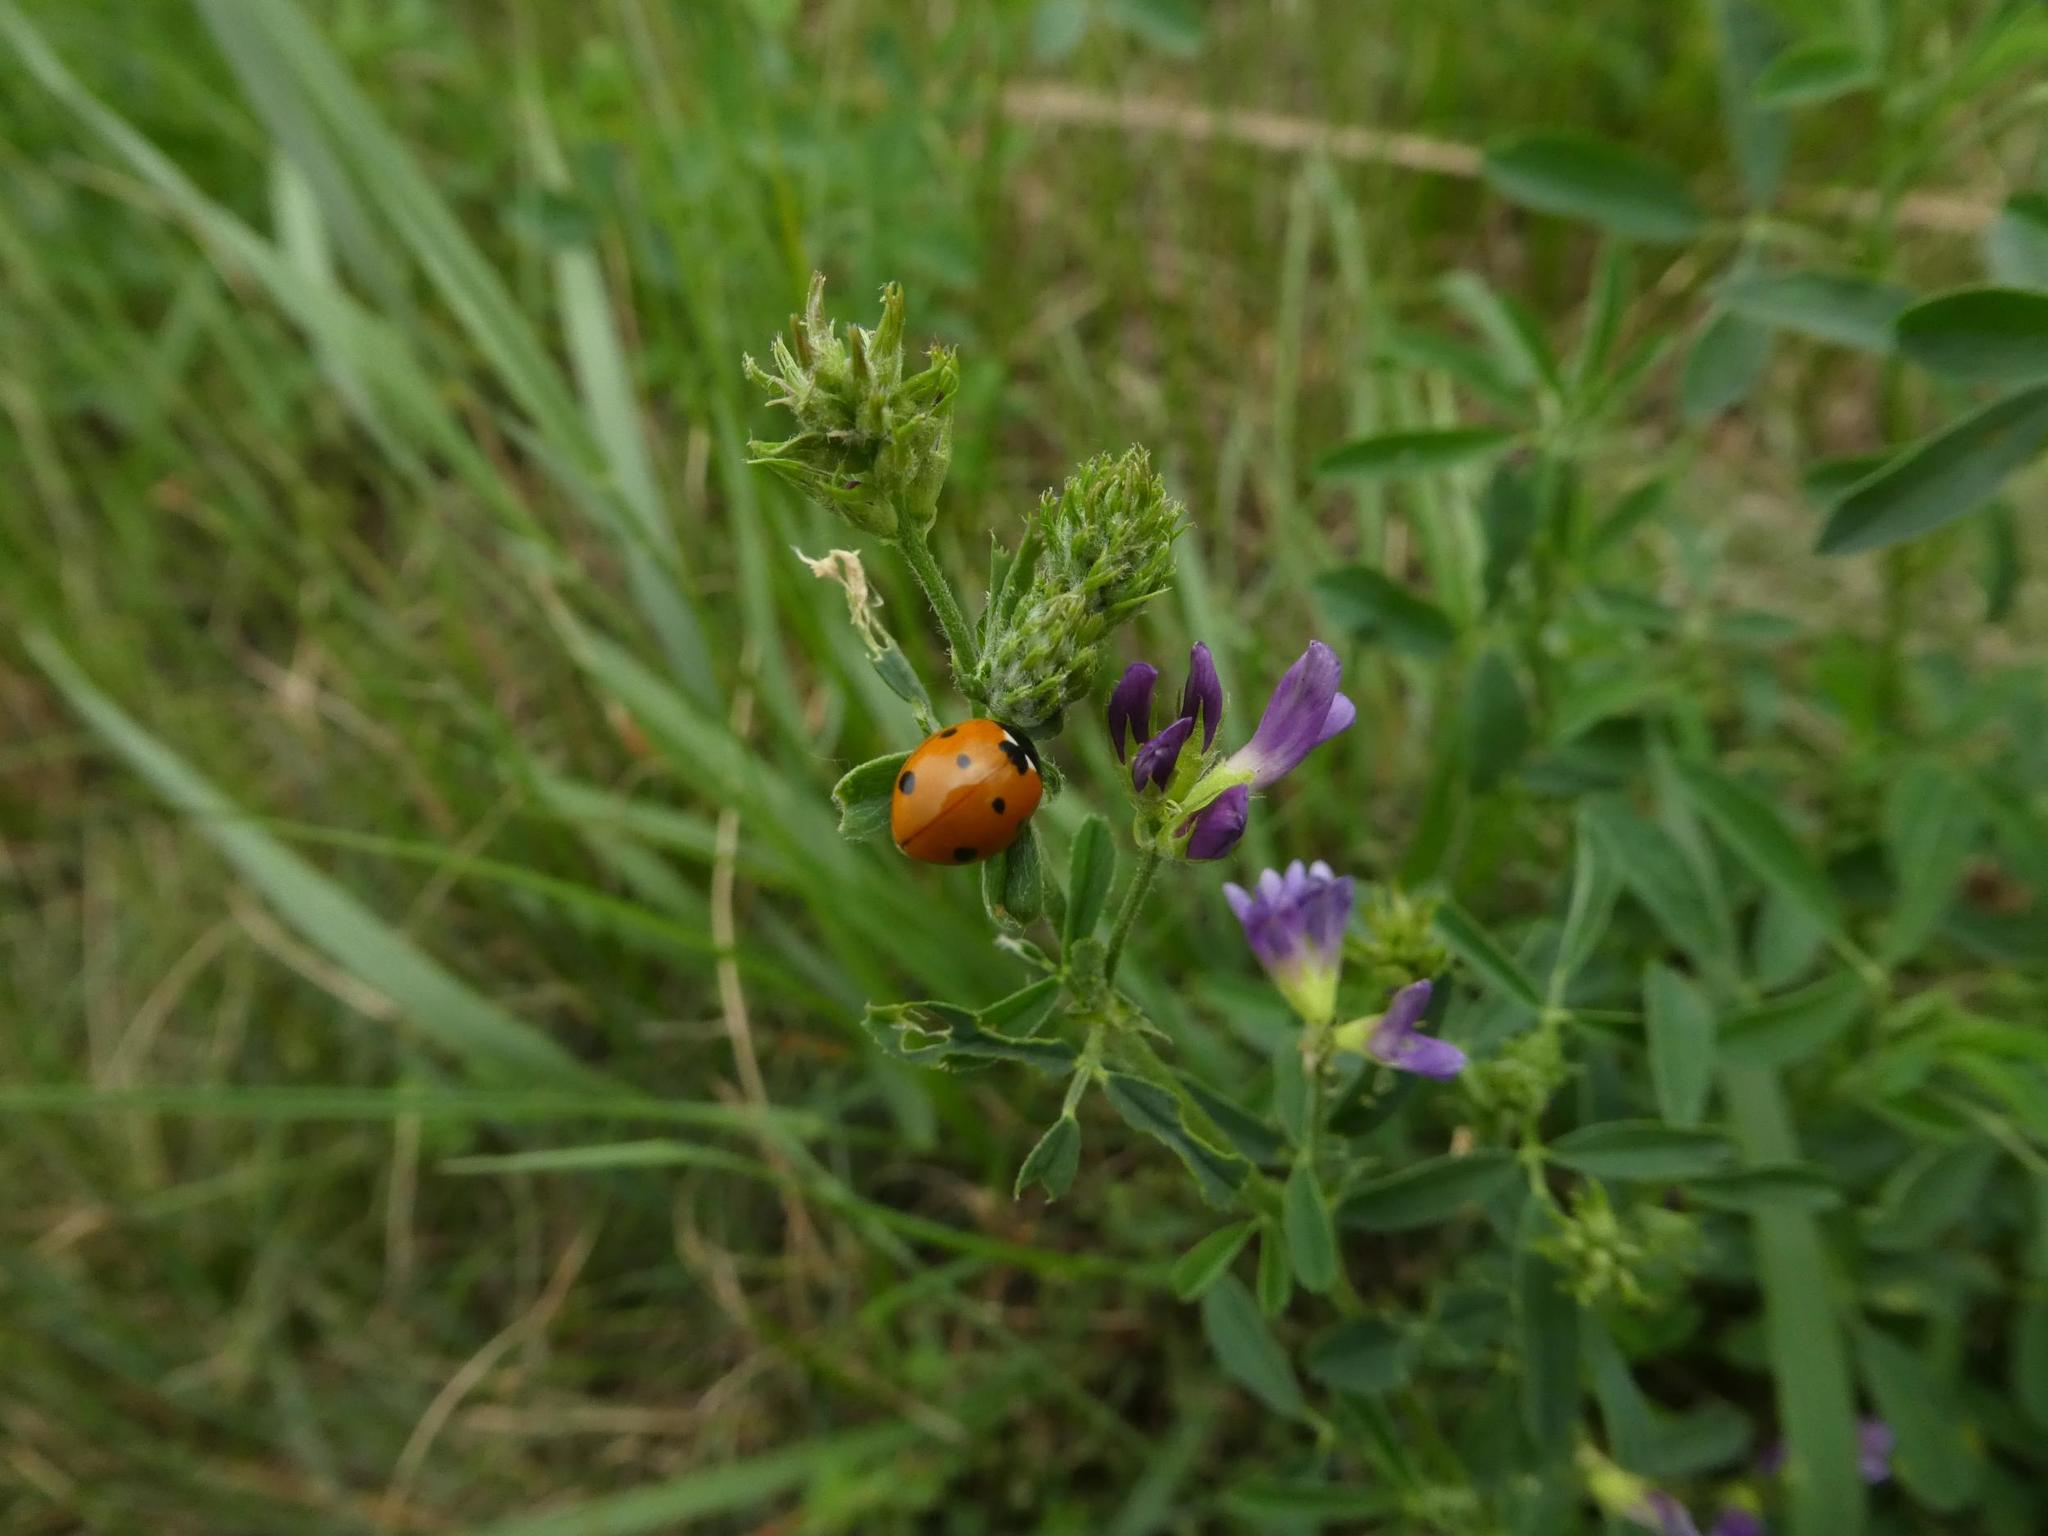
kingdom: Animalia
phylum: Arthropoda
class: Insecta
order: Coleoptera
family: Coccinellidae
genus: Coccinella
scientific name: Coccinella septempunctata
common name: Sevenspotted lady beetle
